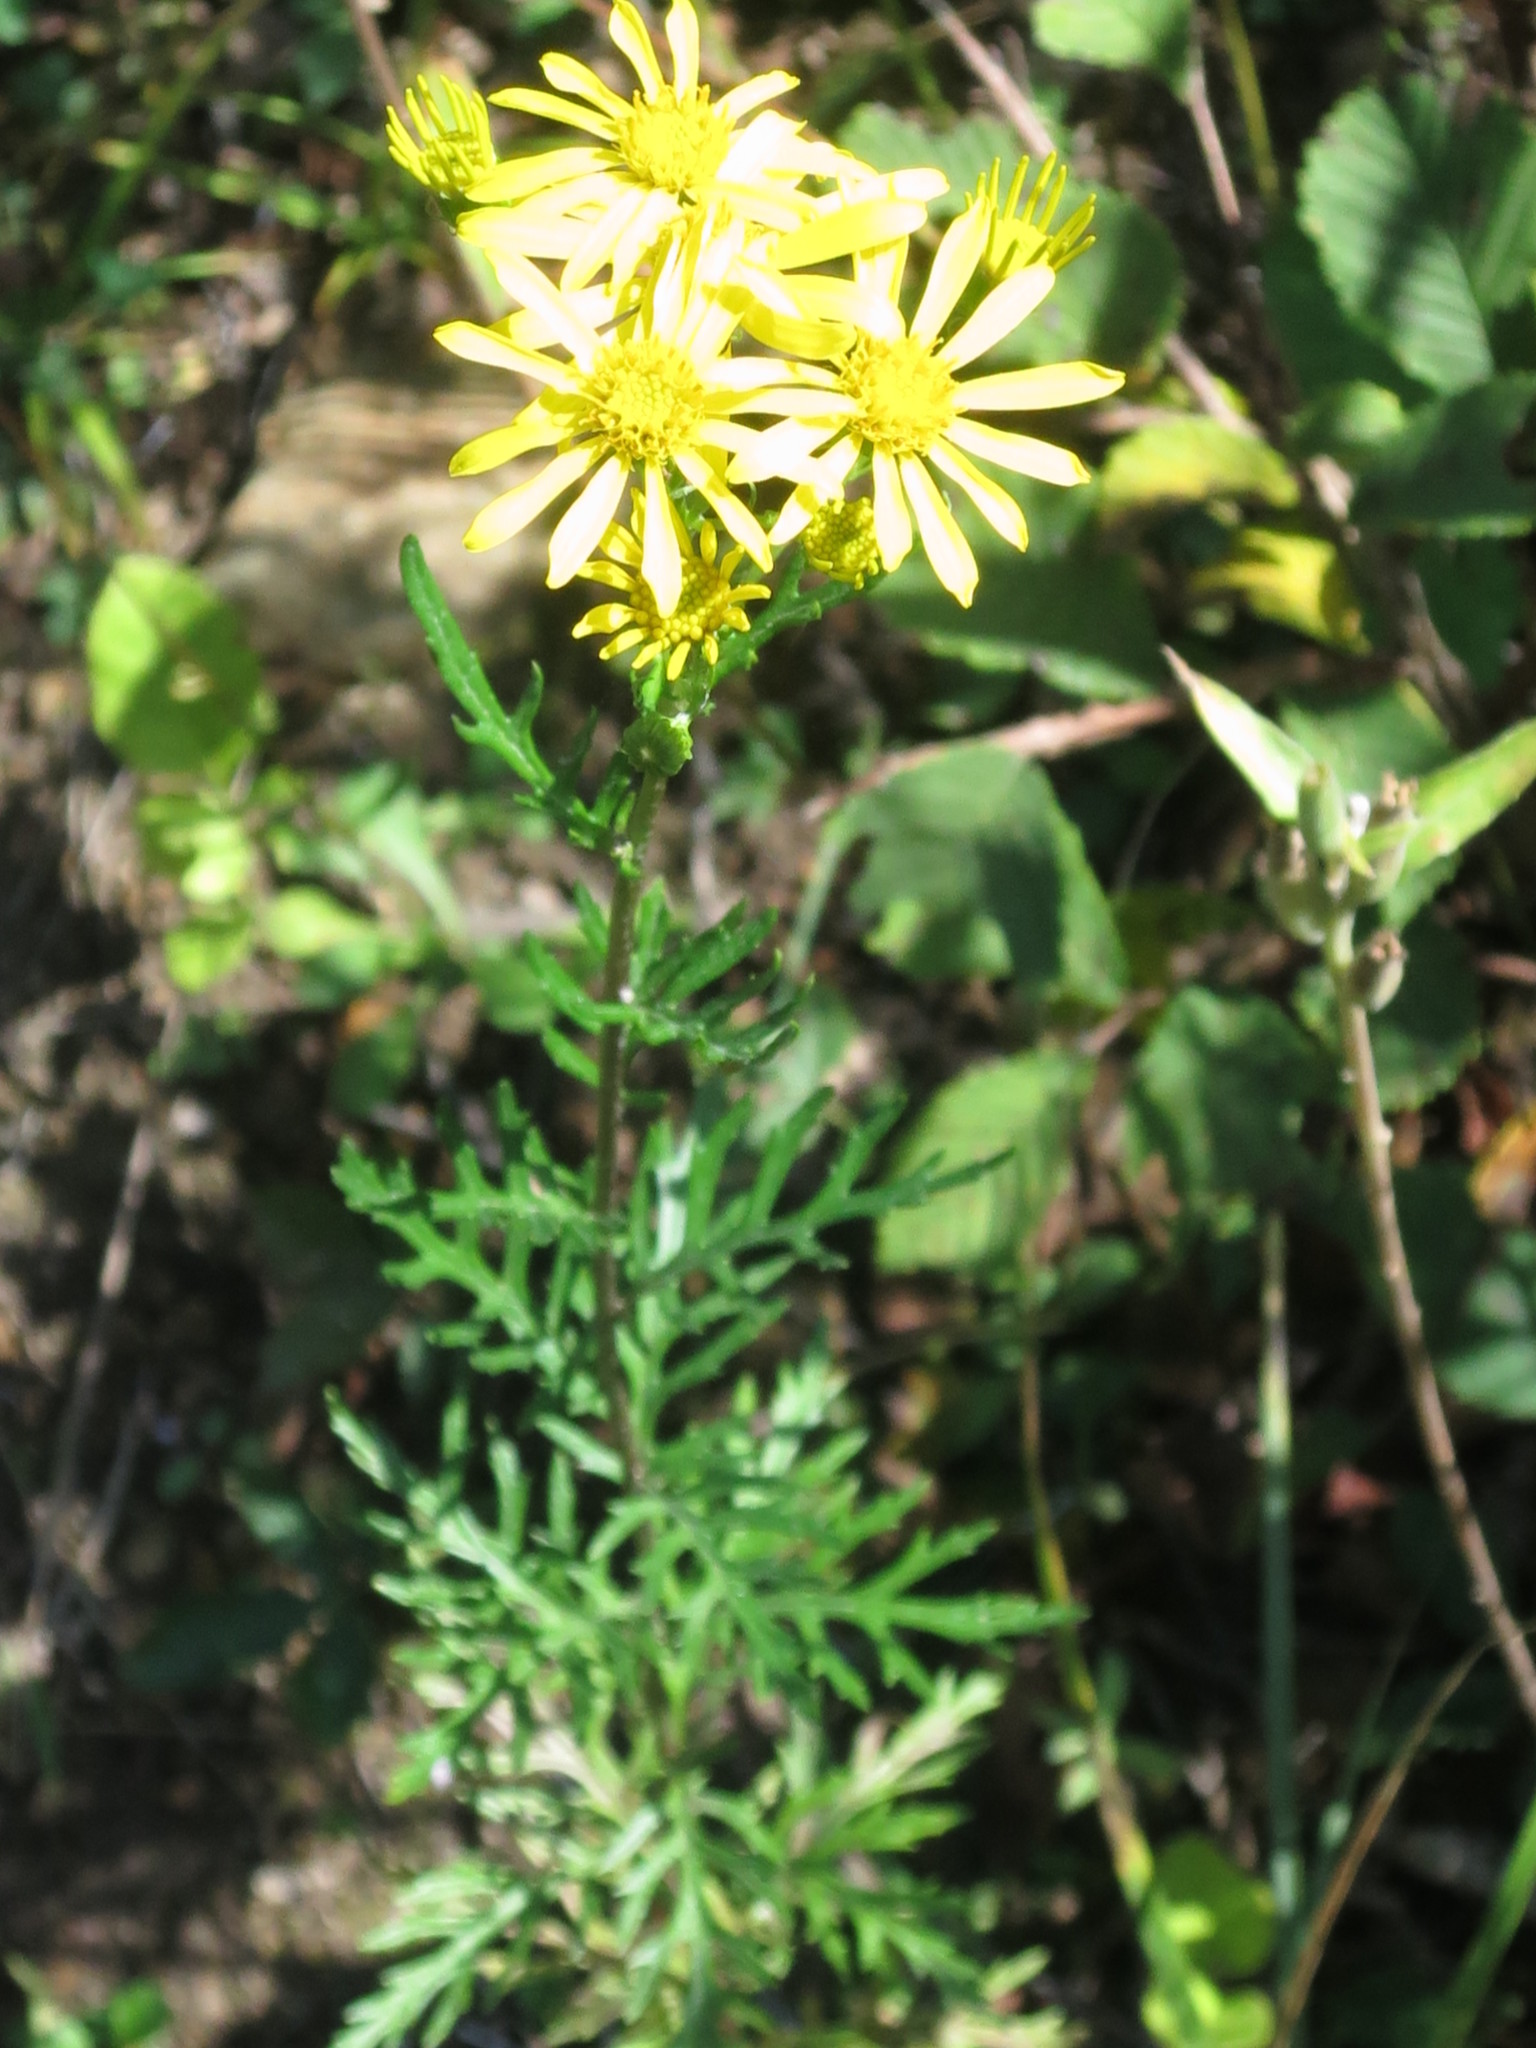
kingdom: Plantae
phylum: Tracheophyta
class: Magnoliopsida
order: Asterales
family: Asteraceae
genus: Jacobaea
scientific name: Jacobaea erucifolia
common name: Hoary ragwort
